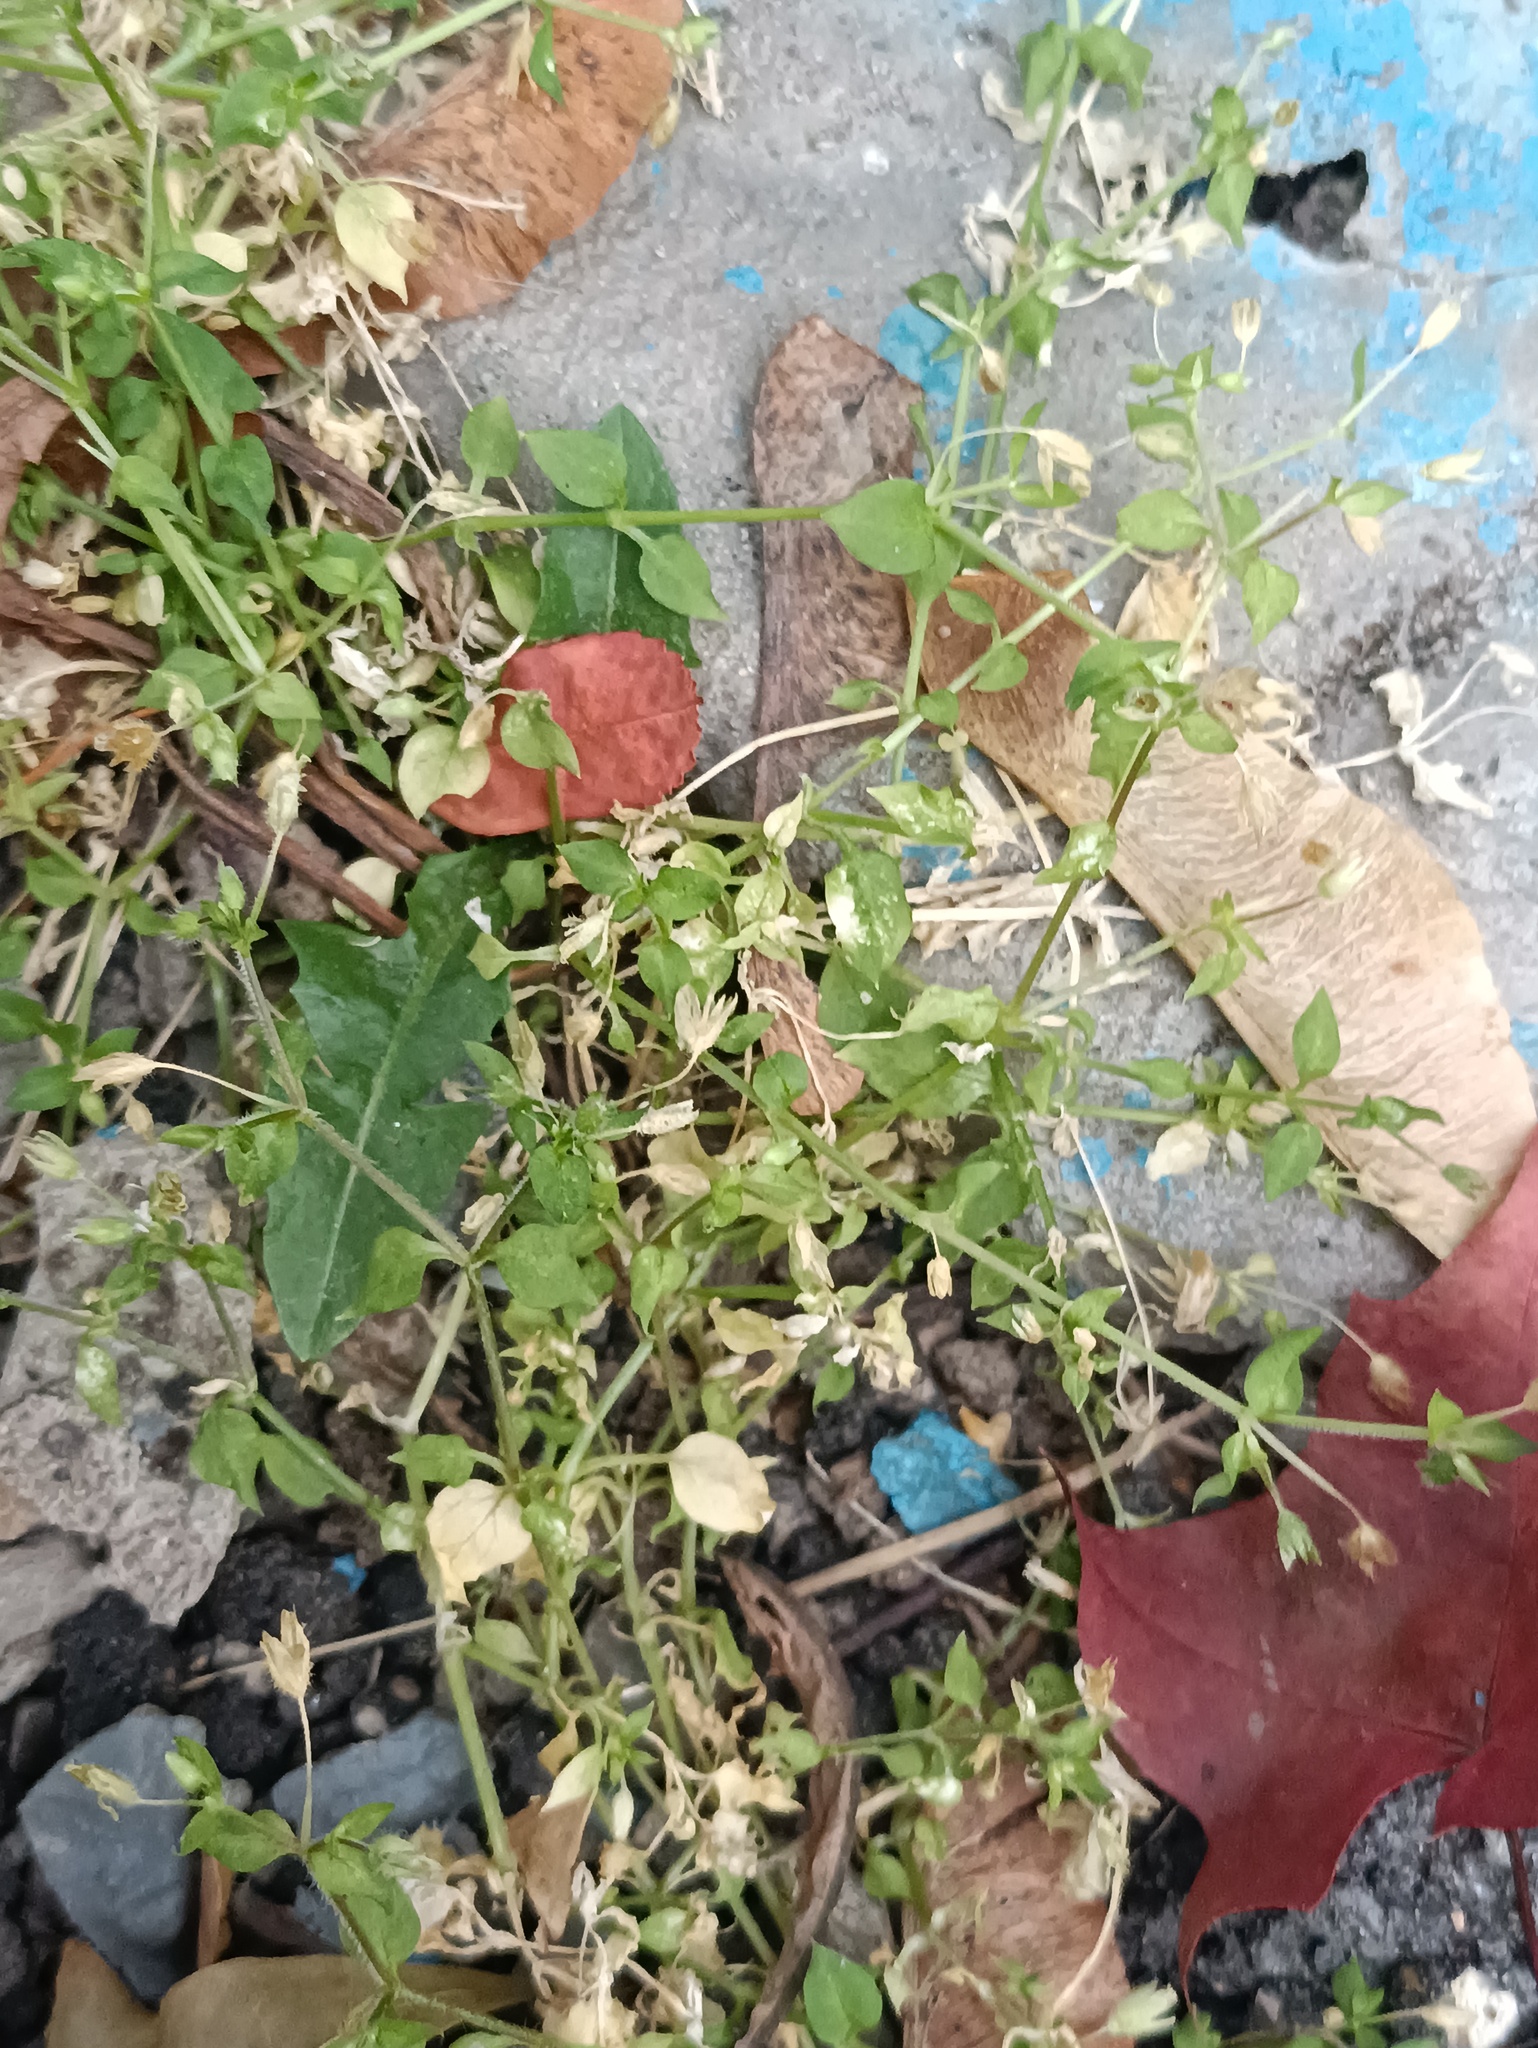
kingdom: Plantae
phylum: Tracheophyta
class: Magnoliopsida
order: Caryophyllales
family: Caryophyllaceae
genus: Stellaria
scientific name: Stellaria media
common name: Common chickweed
